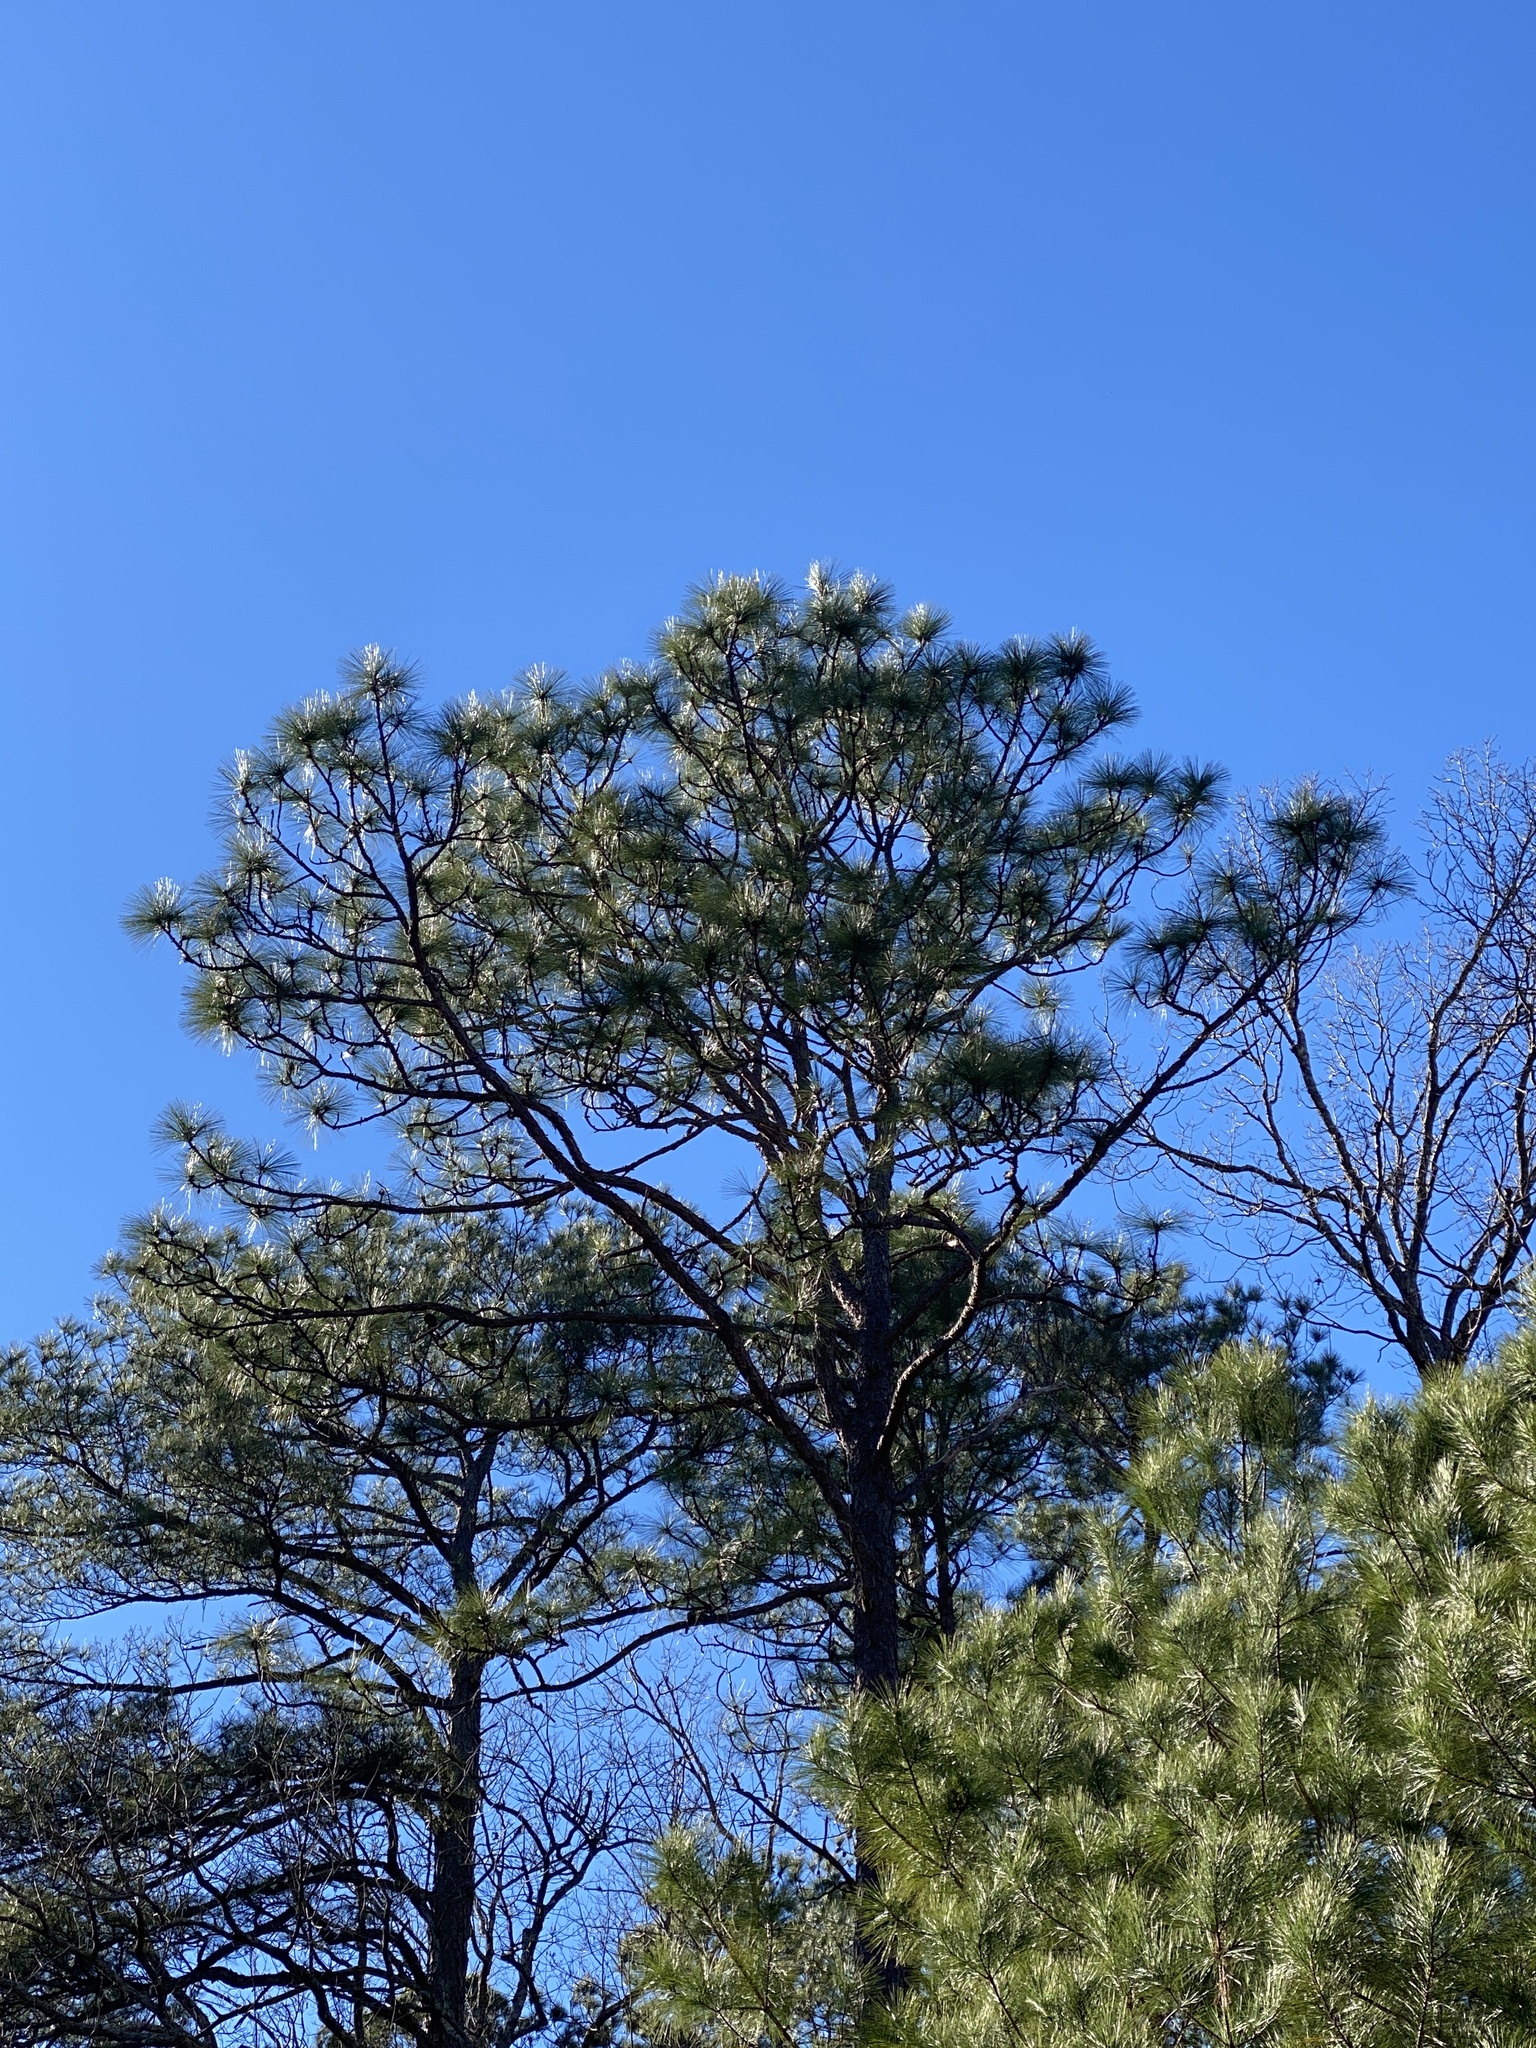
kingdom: Plantae
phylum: Tracheophyta
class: Pinopsida
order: Pinales
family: Pinaceae
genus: Pinus
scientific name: Pinus palustris
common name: Longleaf pine
